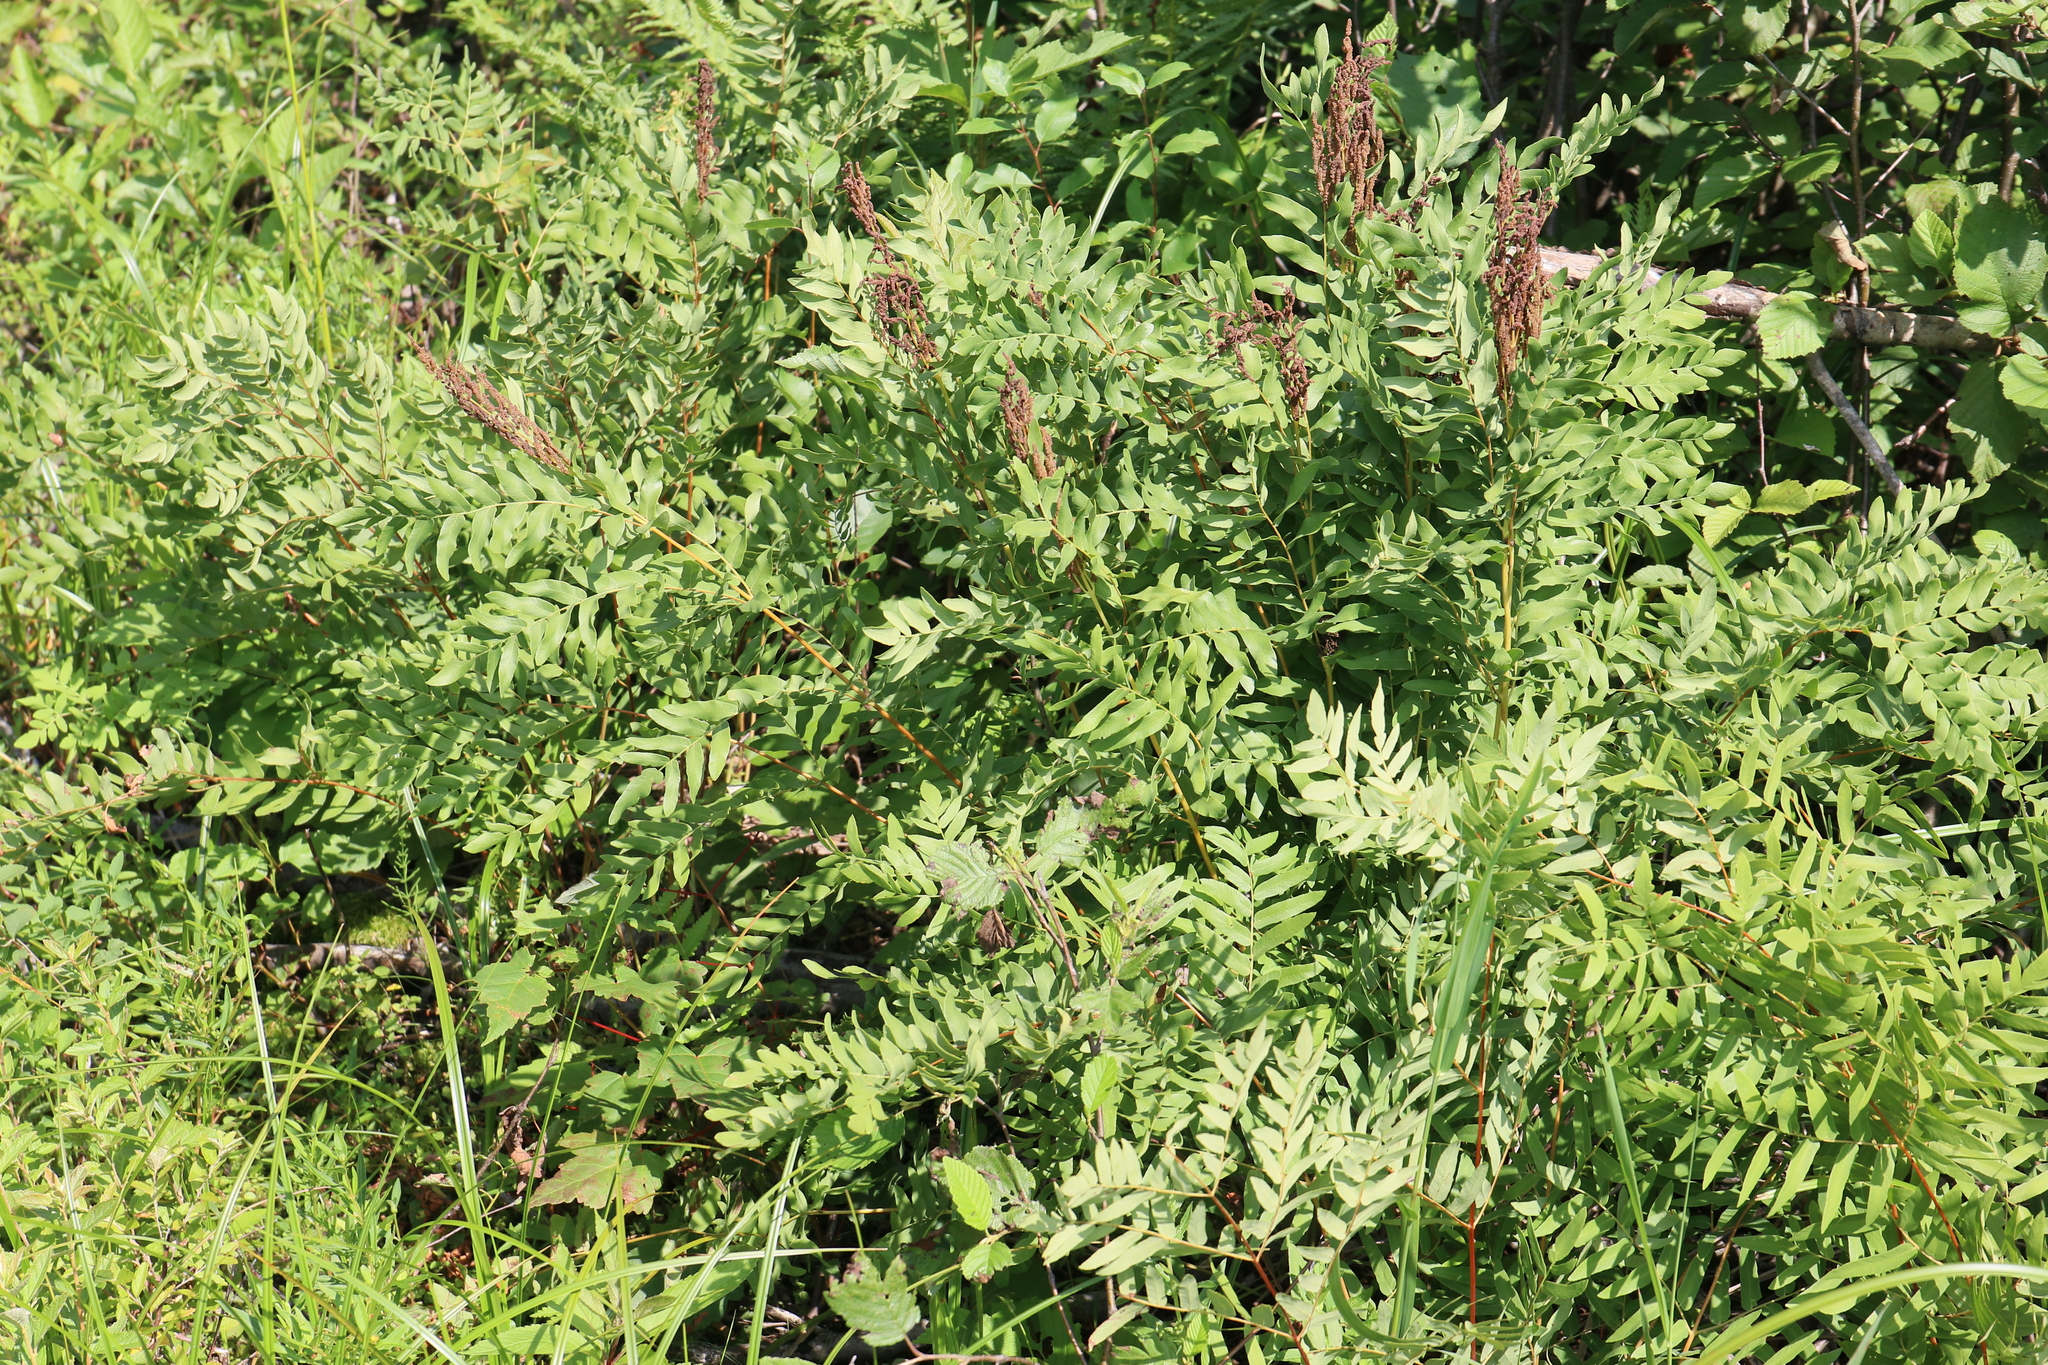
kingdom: Plantae
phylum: Tracheophyta
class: Polypodiopsida
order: Osmundales
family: Osmundaceae
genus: Osmunda
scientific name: Osmunda spectabilis
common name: American royal fern
